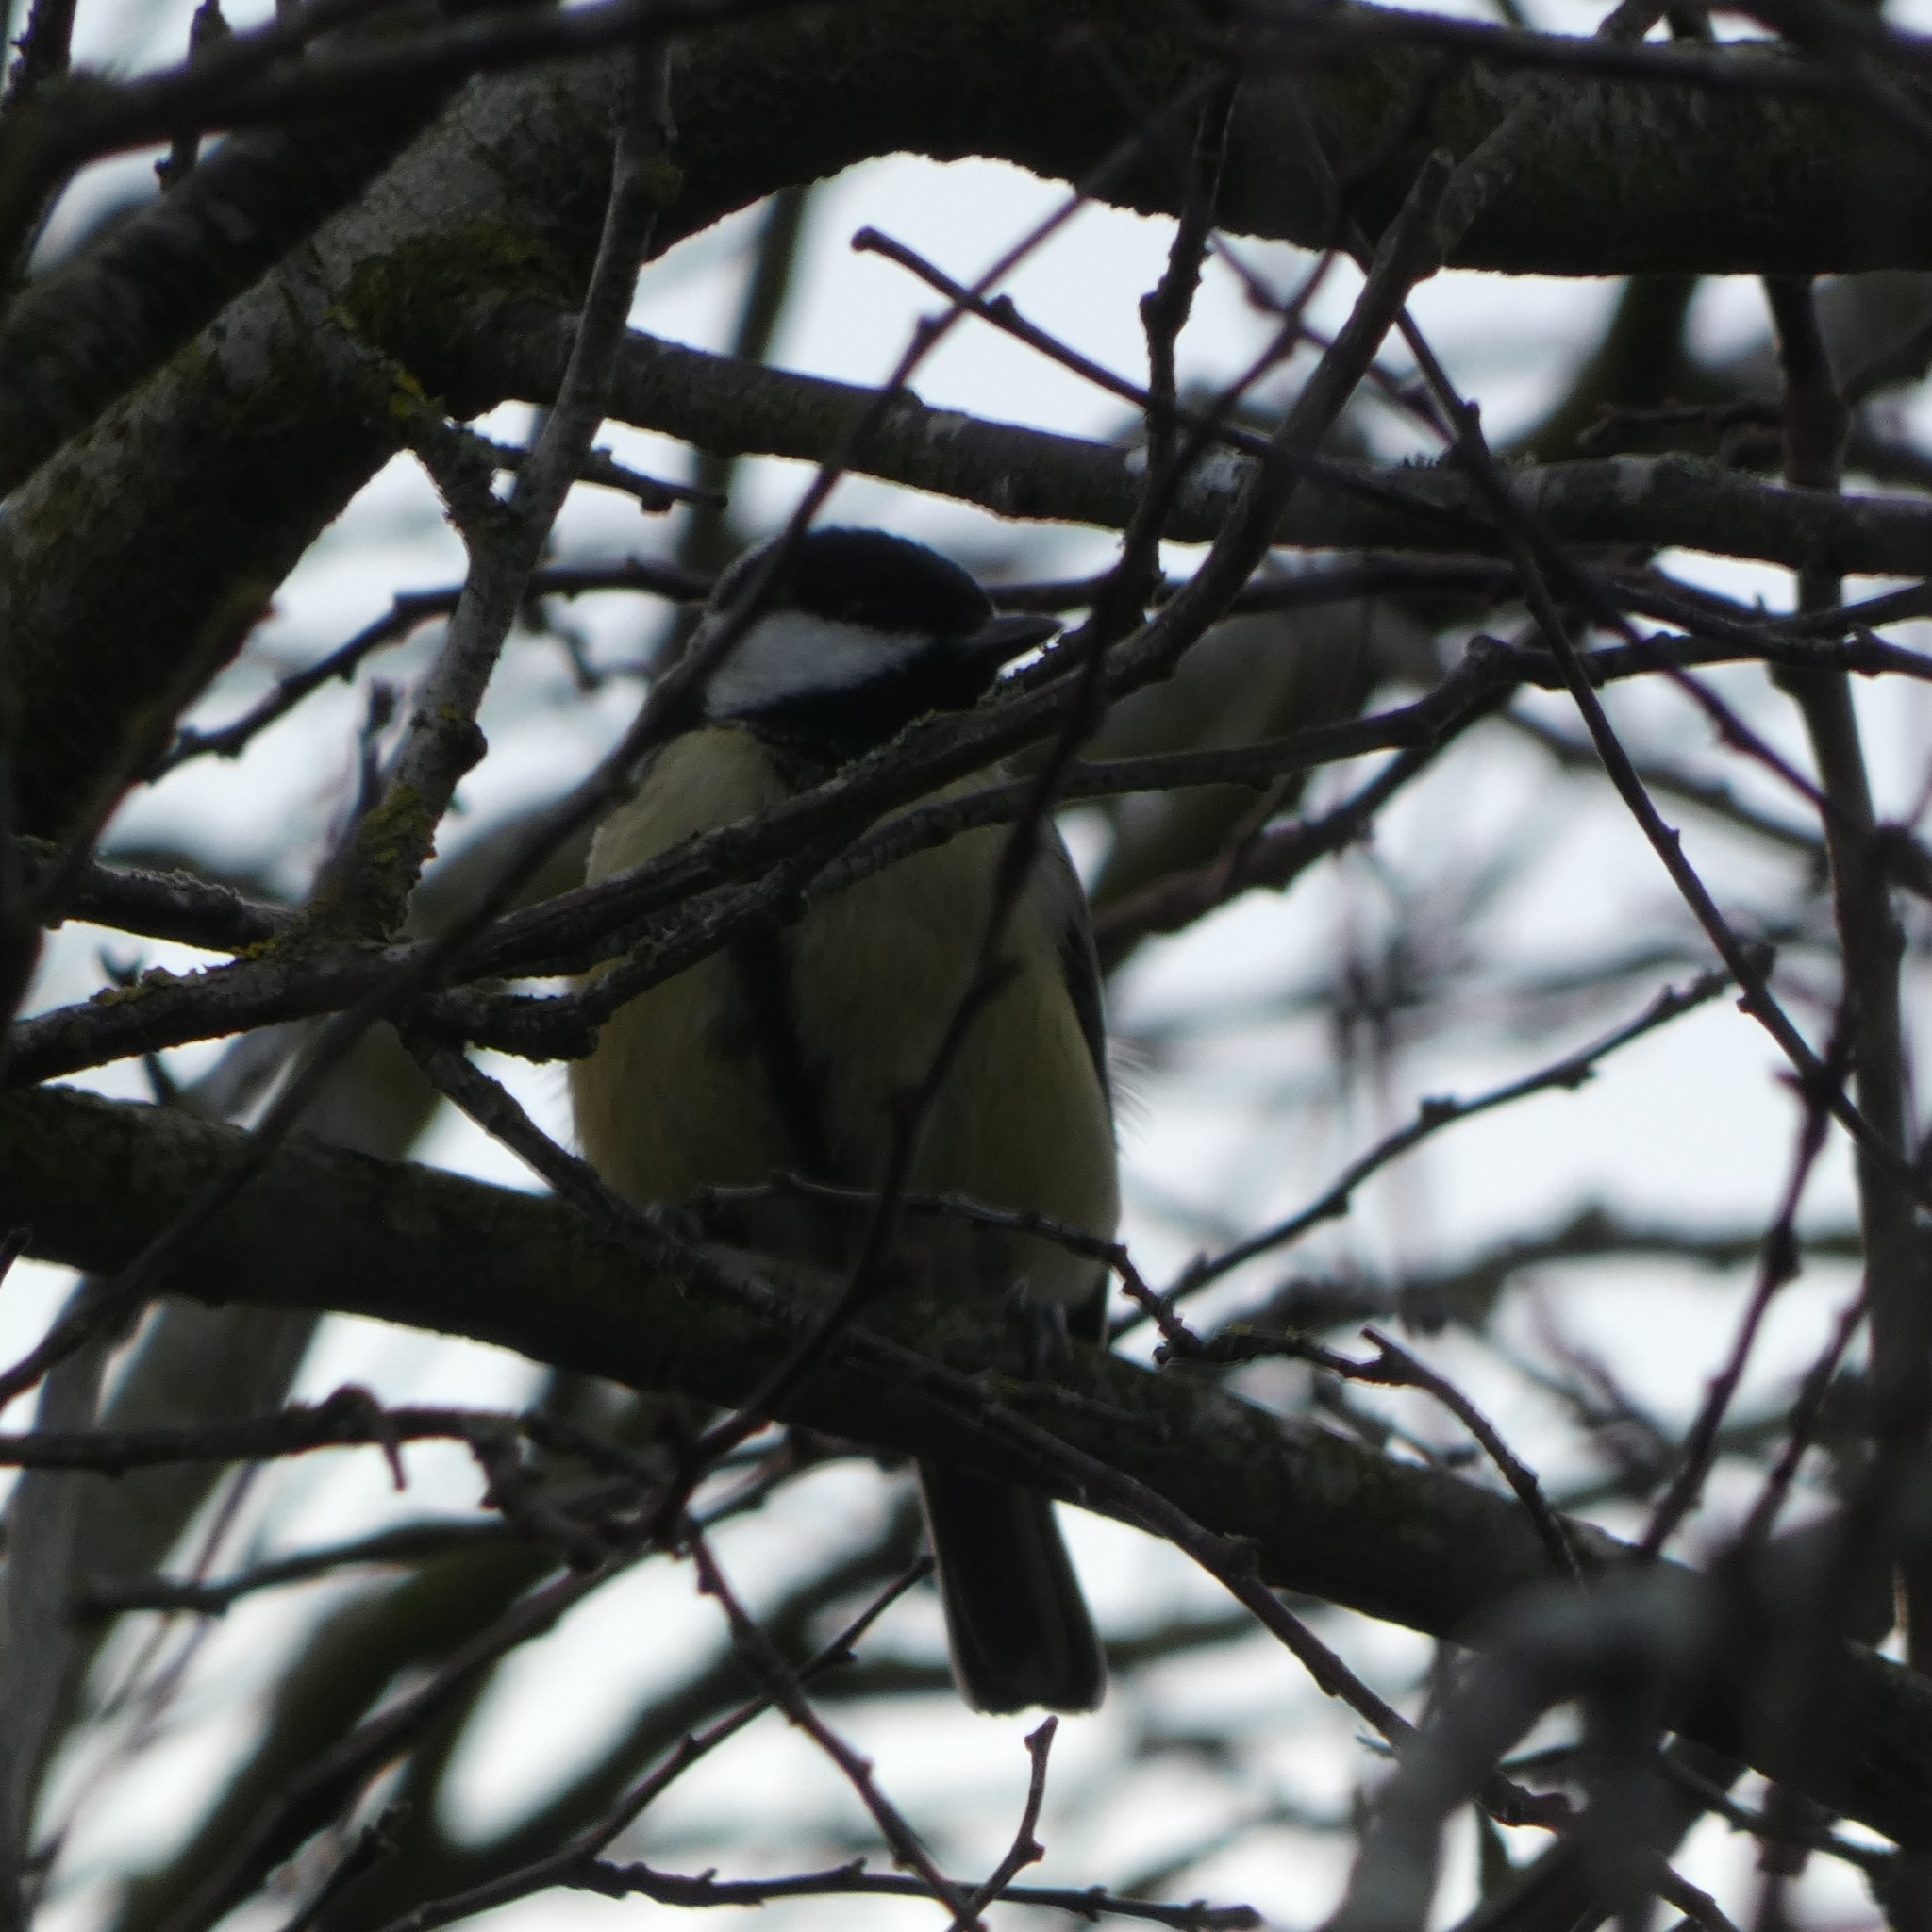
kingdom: Animalia
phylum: Chordata
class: Aves
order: Passeriformes
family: Paridae
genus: Parus
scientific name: Parus major
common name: Great tit
